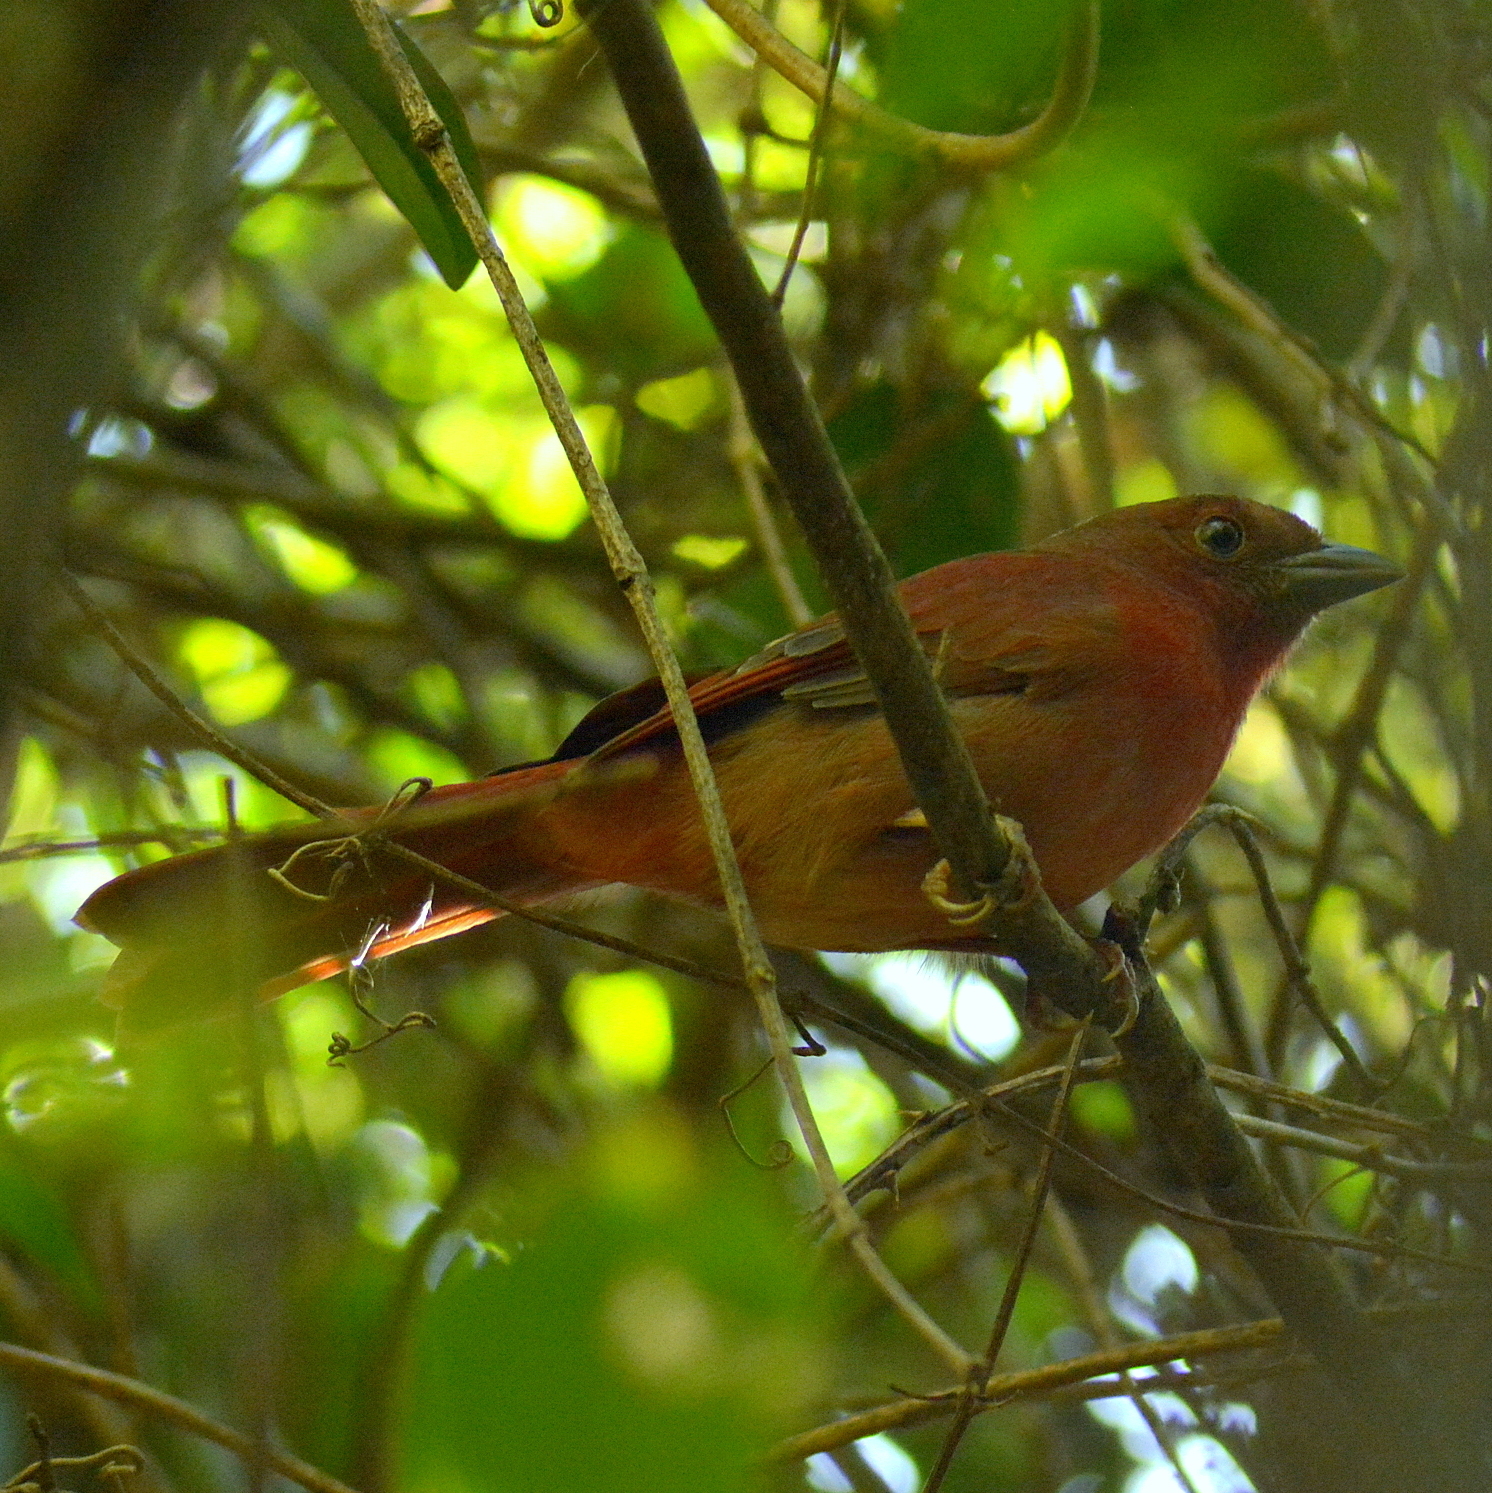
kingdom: Animalia
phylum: Chordata
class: Aves
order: Passeriformes
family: Cardinalidae
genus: Habia
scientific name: Habia rubica
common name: Red-crowned ant-tanager
